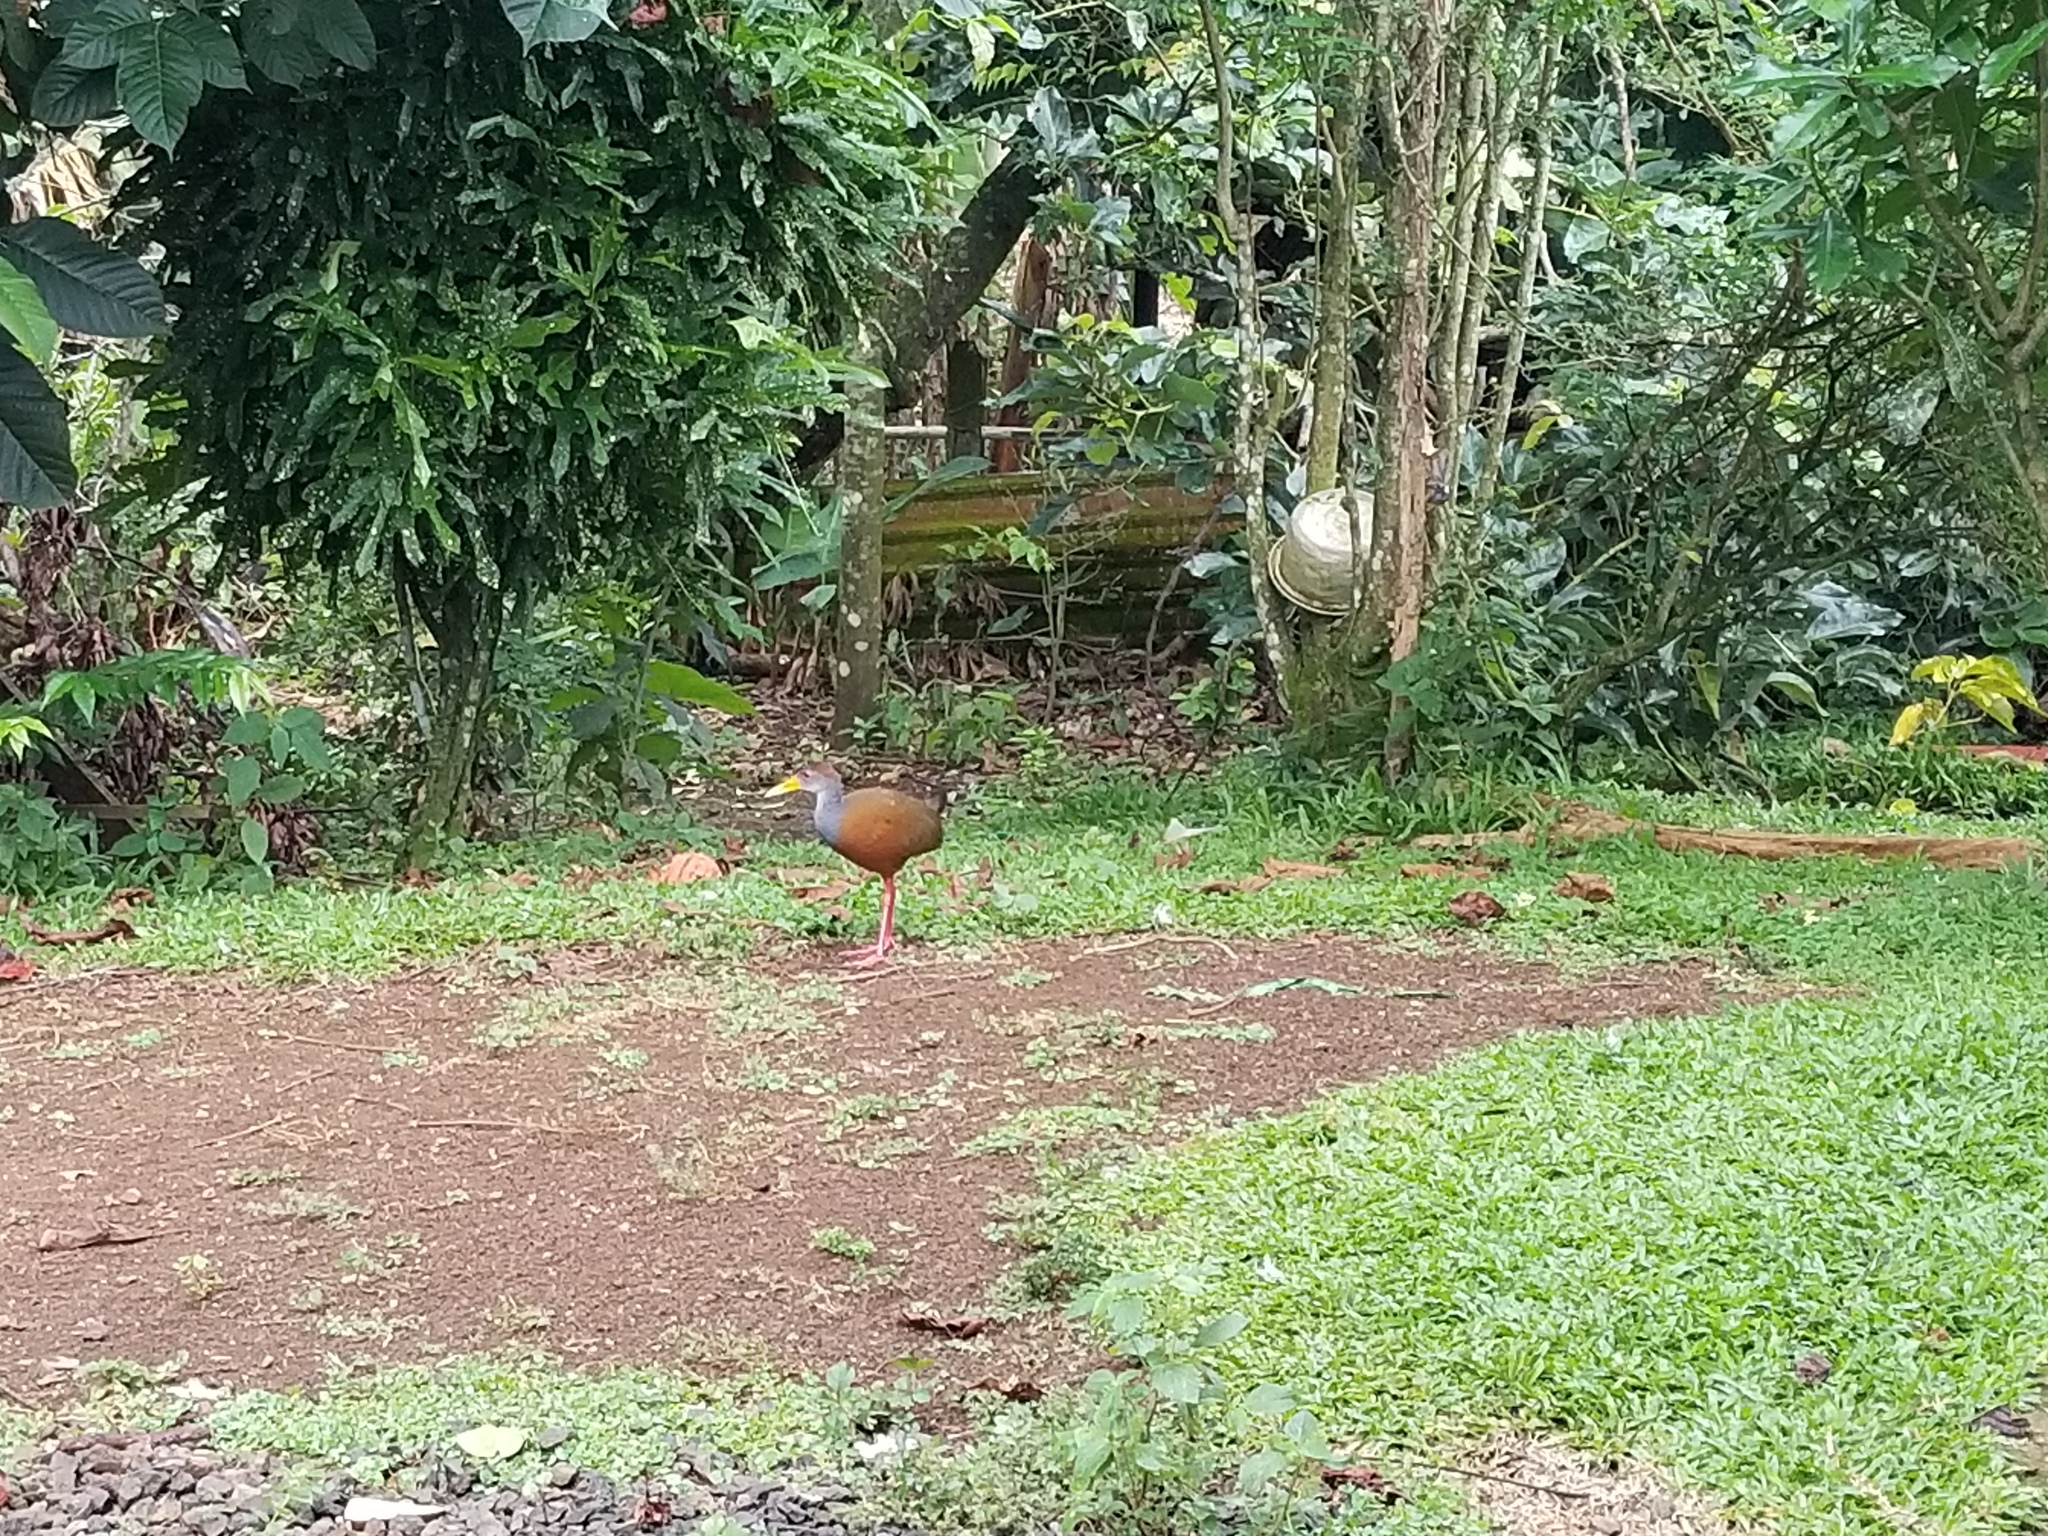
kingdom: Animalia
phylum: Chordata
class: Aves
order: Gruiformes
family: Rallidae
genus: Aramides
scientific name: Aramides albiventris
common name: Russet-naped wood-rail
